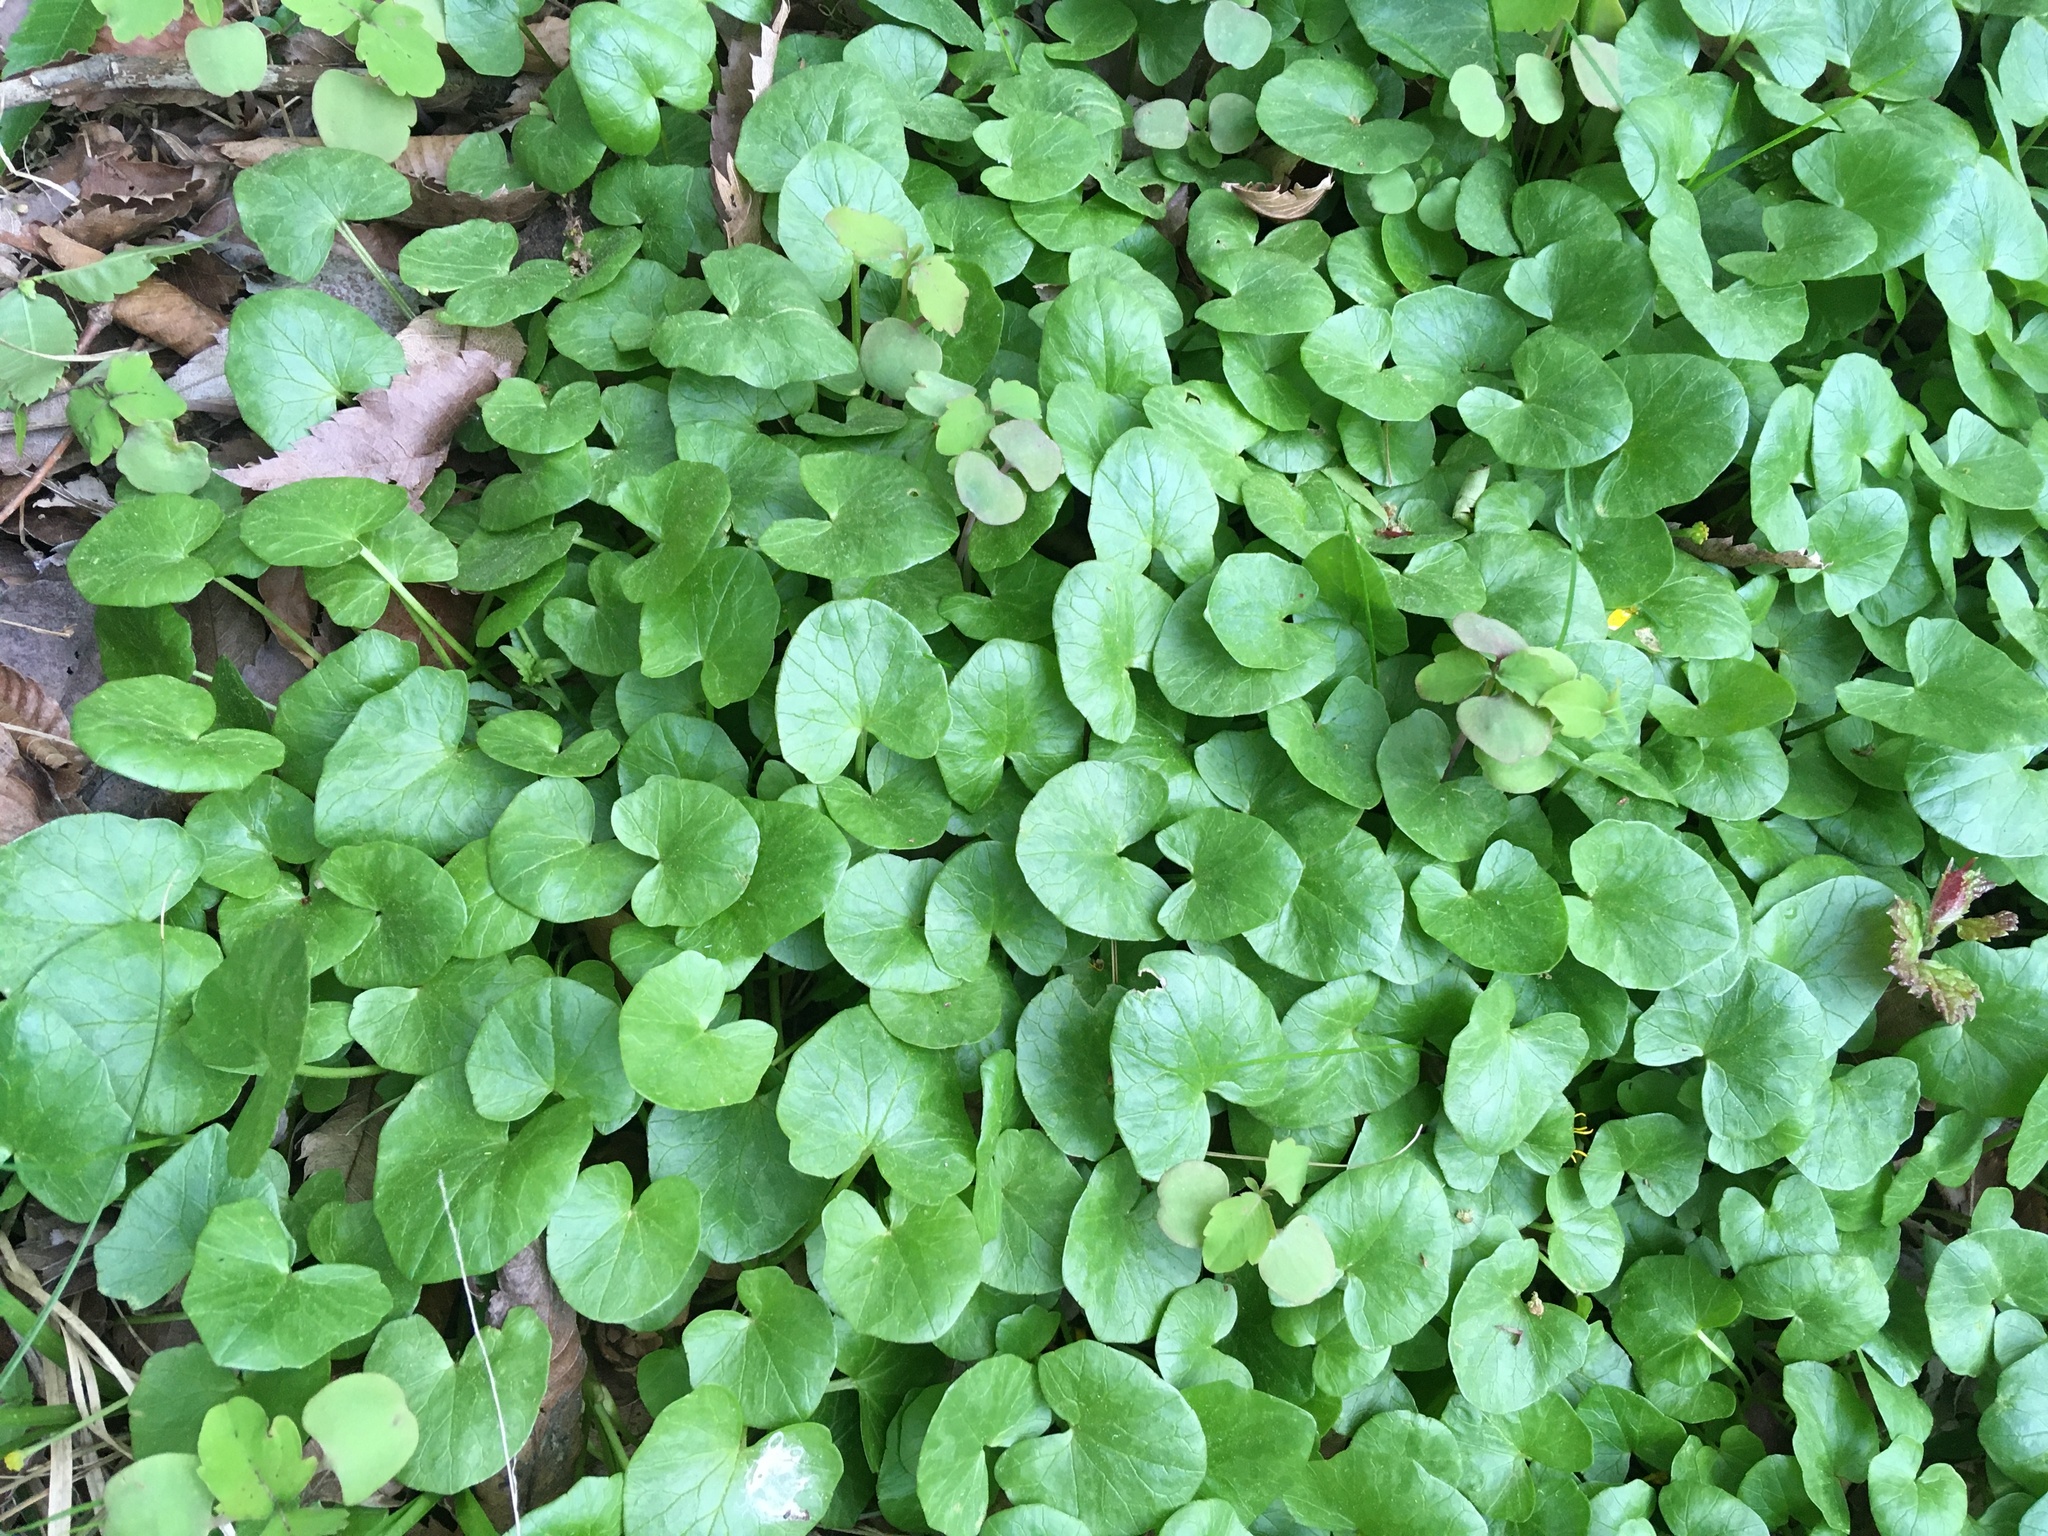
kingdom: Plantae
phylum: Tracheophyta
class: Magnoliopsida
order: Ranunculales
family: Ranunculaceae
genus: Ficaria
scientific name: Ficaria verna
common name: Lesser celandine
